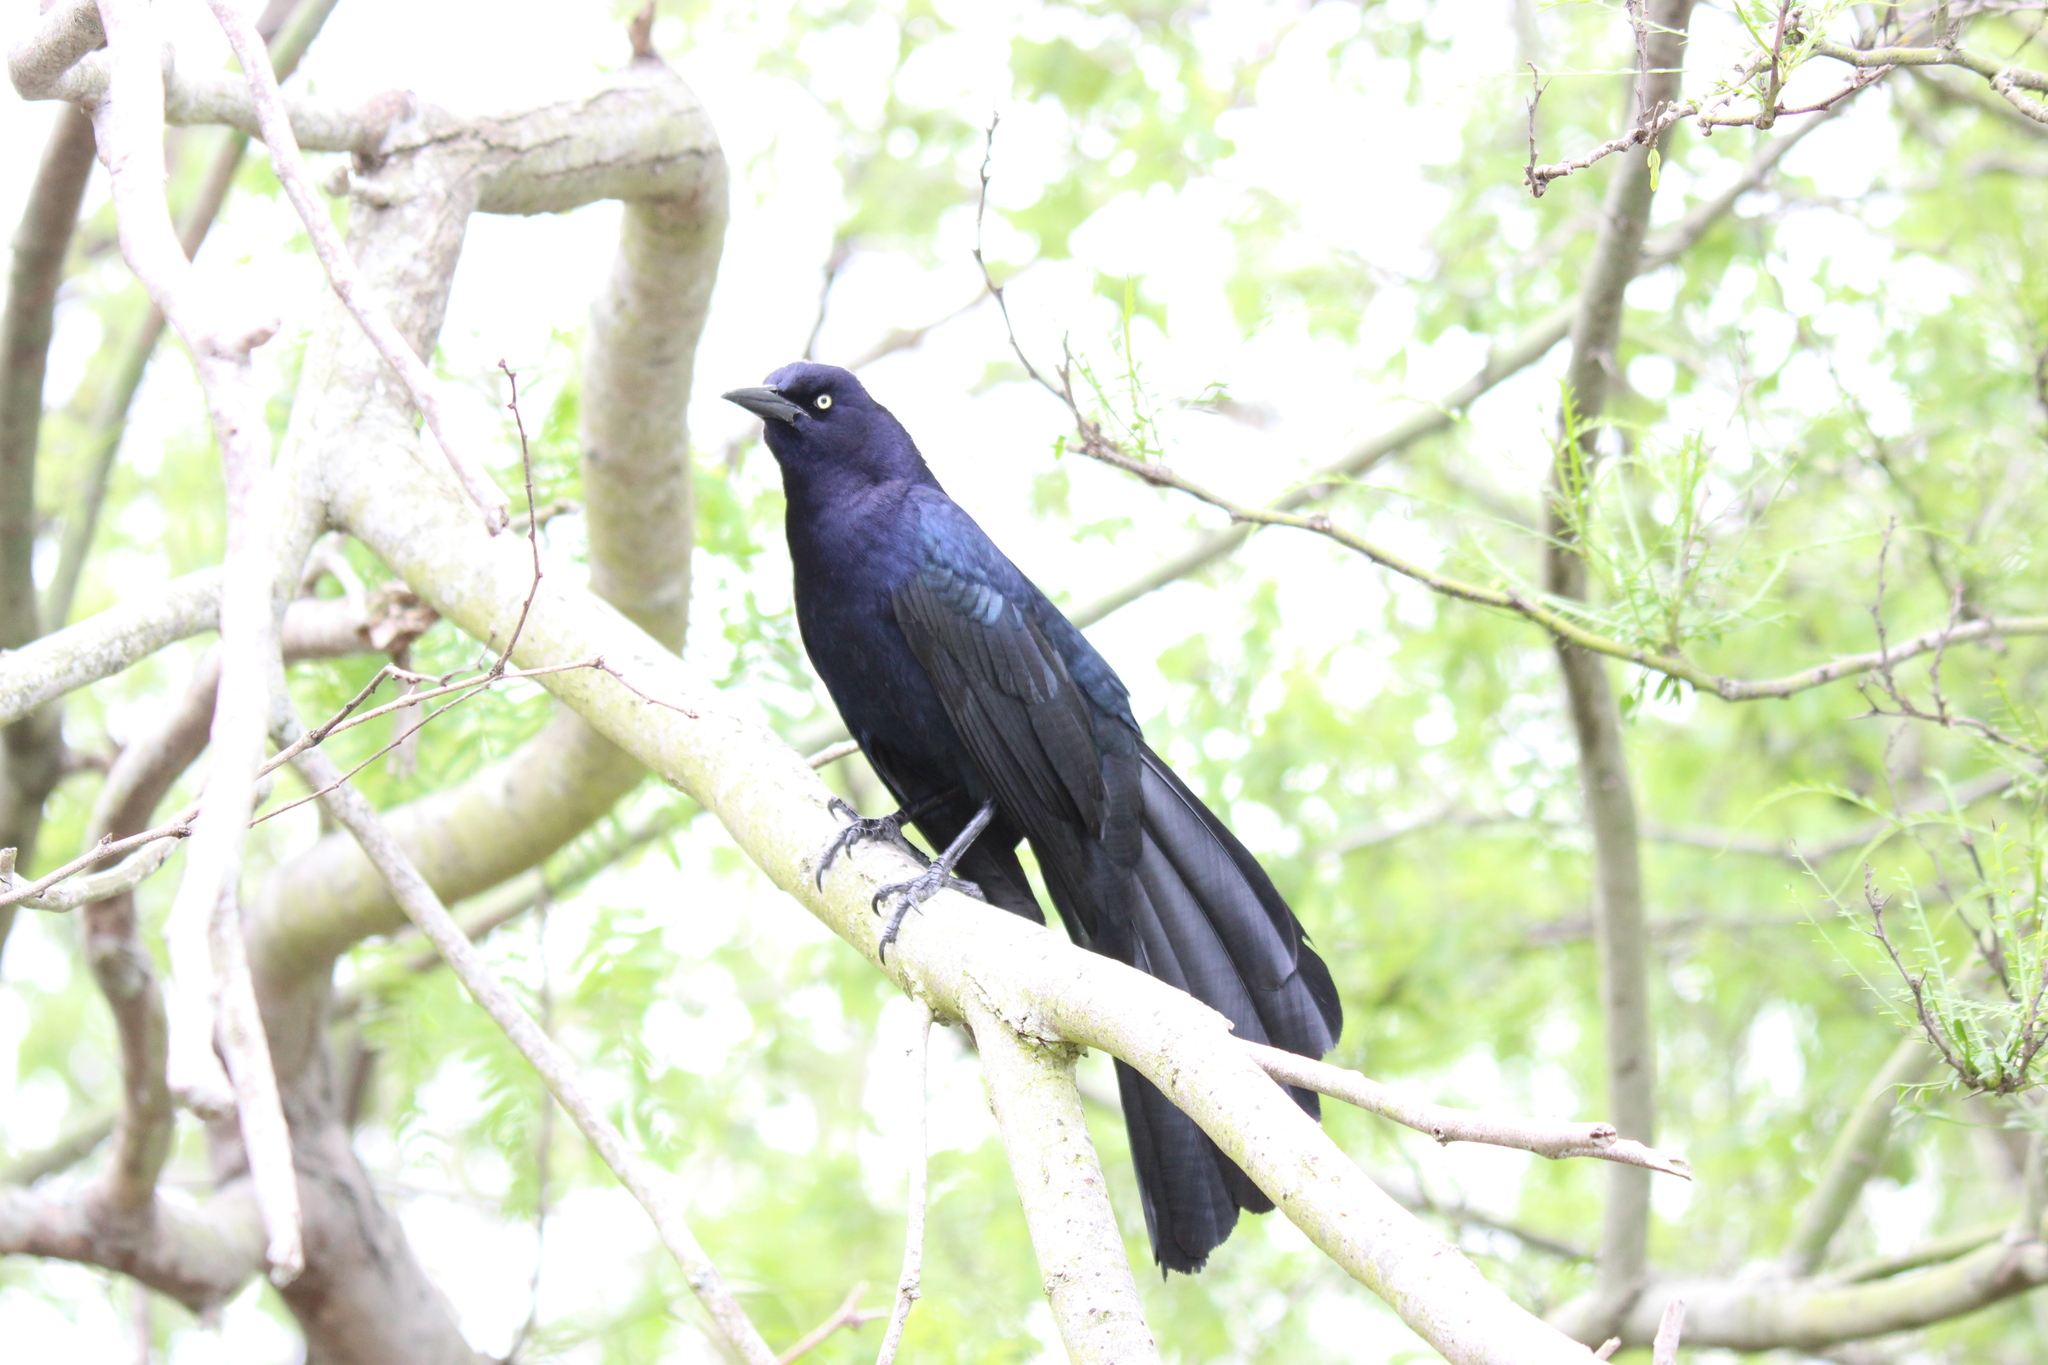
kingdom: Animalia
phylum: Chordata
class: Aves
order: Passeriformes
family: Icteridae
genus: Quiscalus
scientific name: Quiscalus mexicanus
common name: Great-tailed grackle
